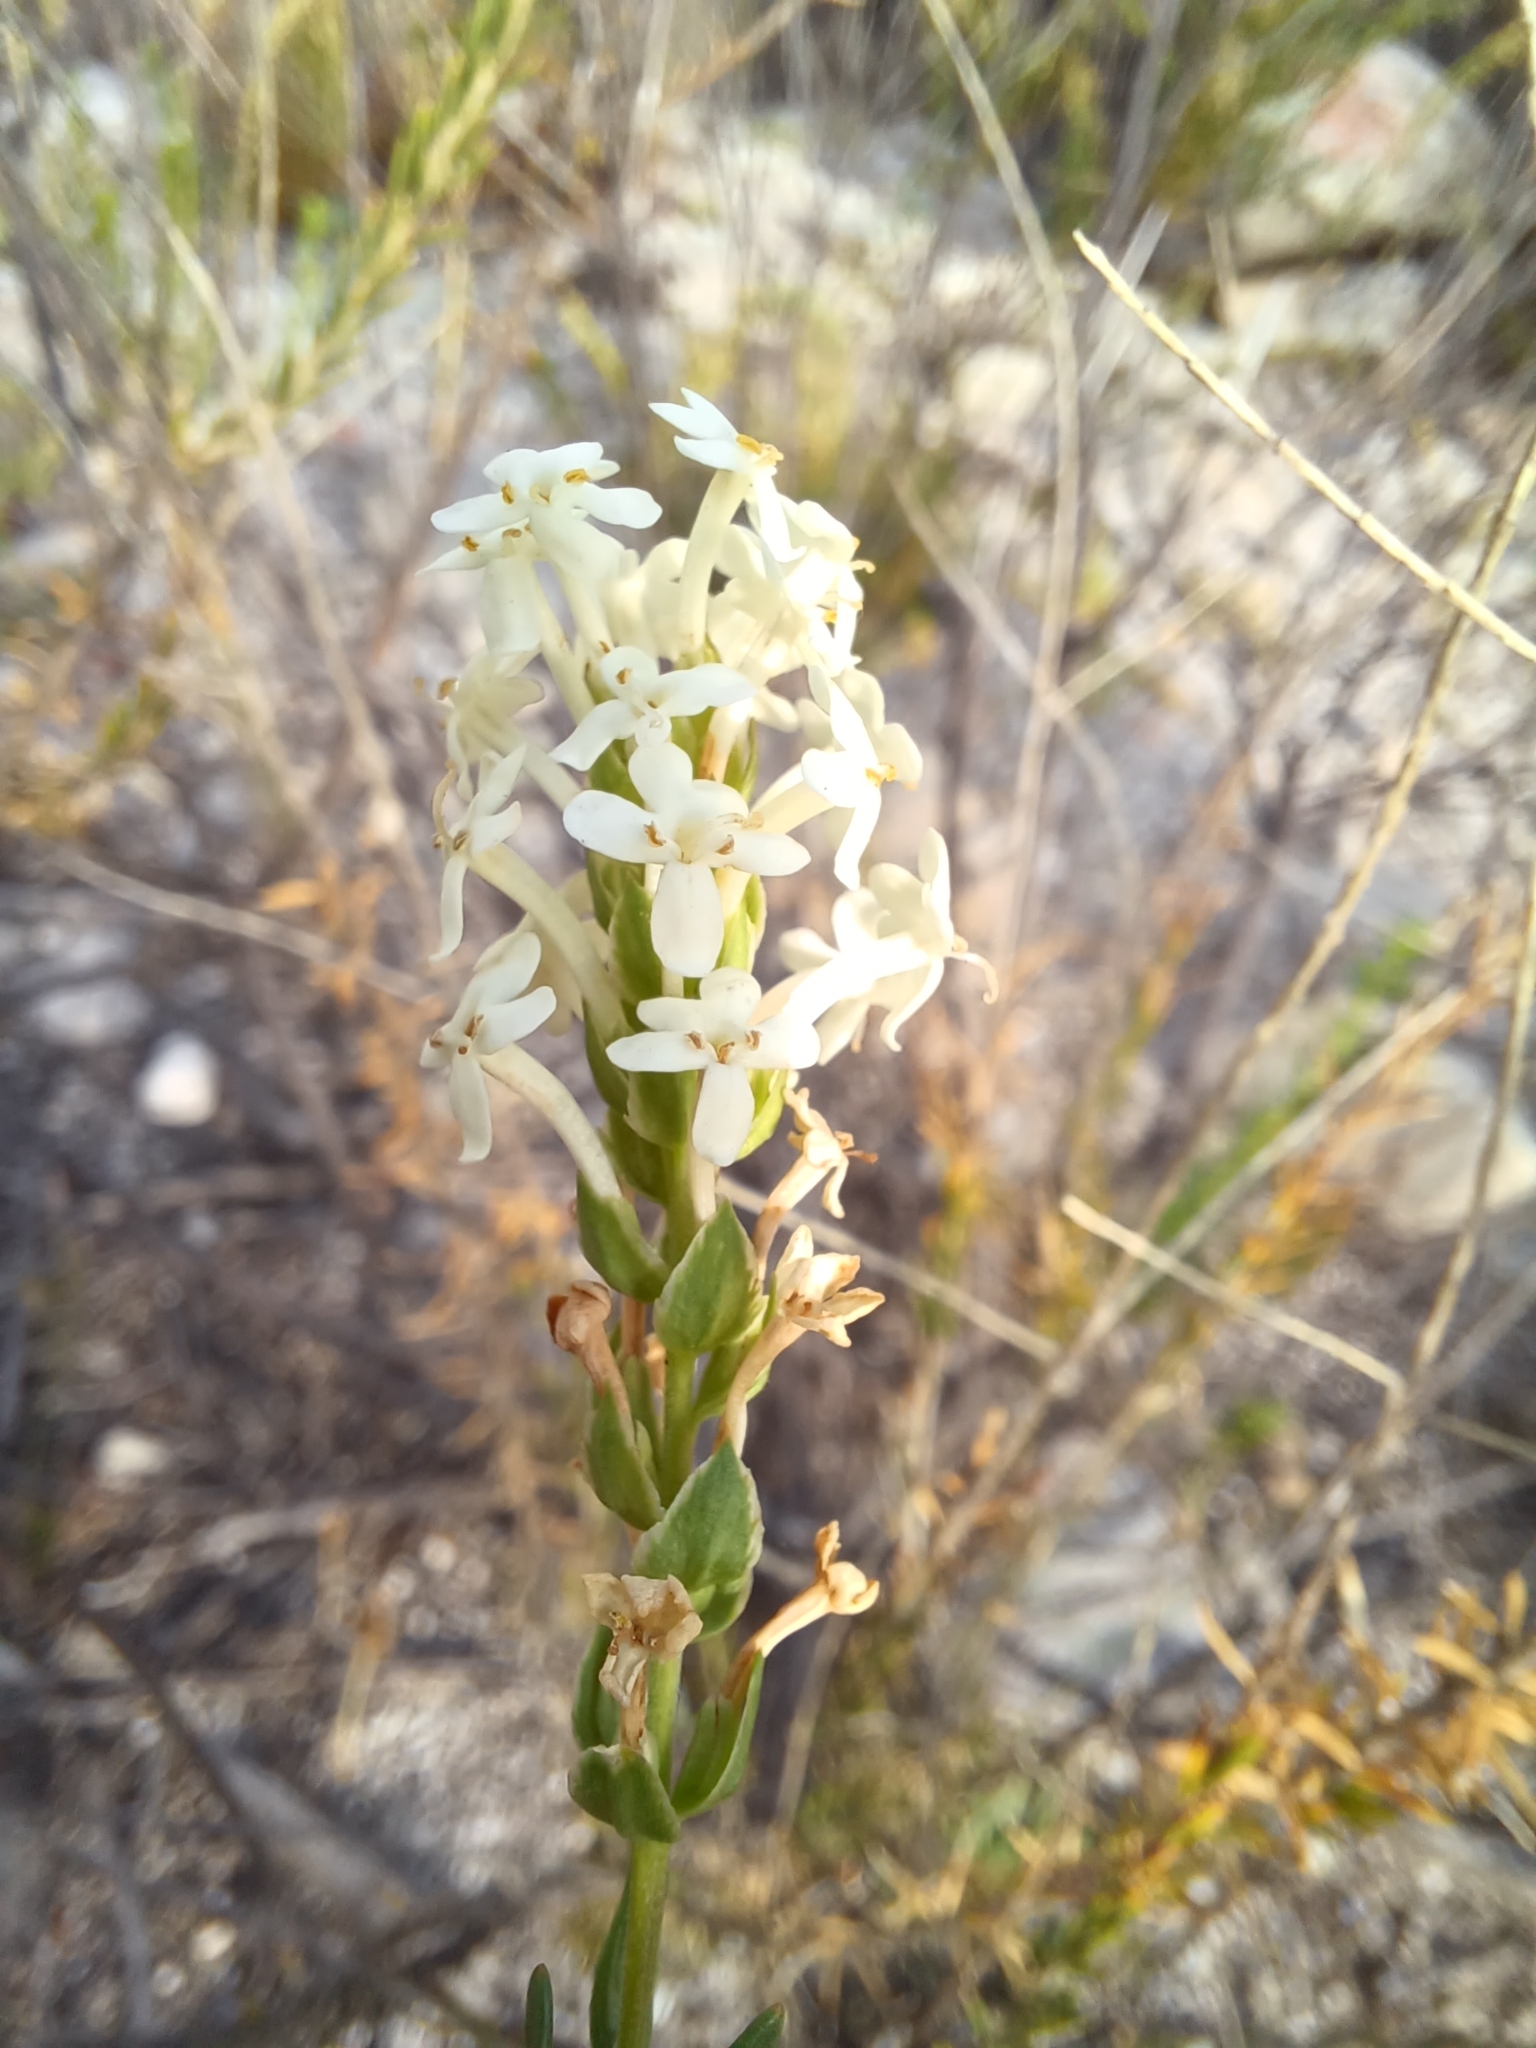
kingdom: Plantae
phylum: Tracheophyta
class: Magnoliopsida
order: Lamiales
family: Scrophulariaceae
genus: Microdon
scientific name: Microdon polygaloides
